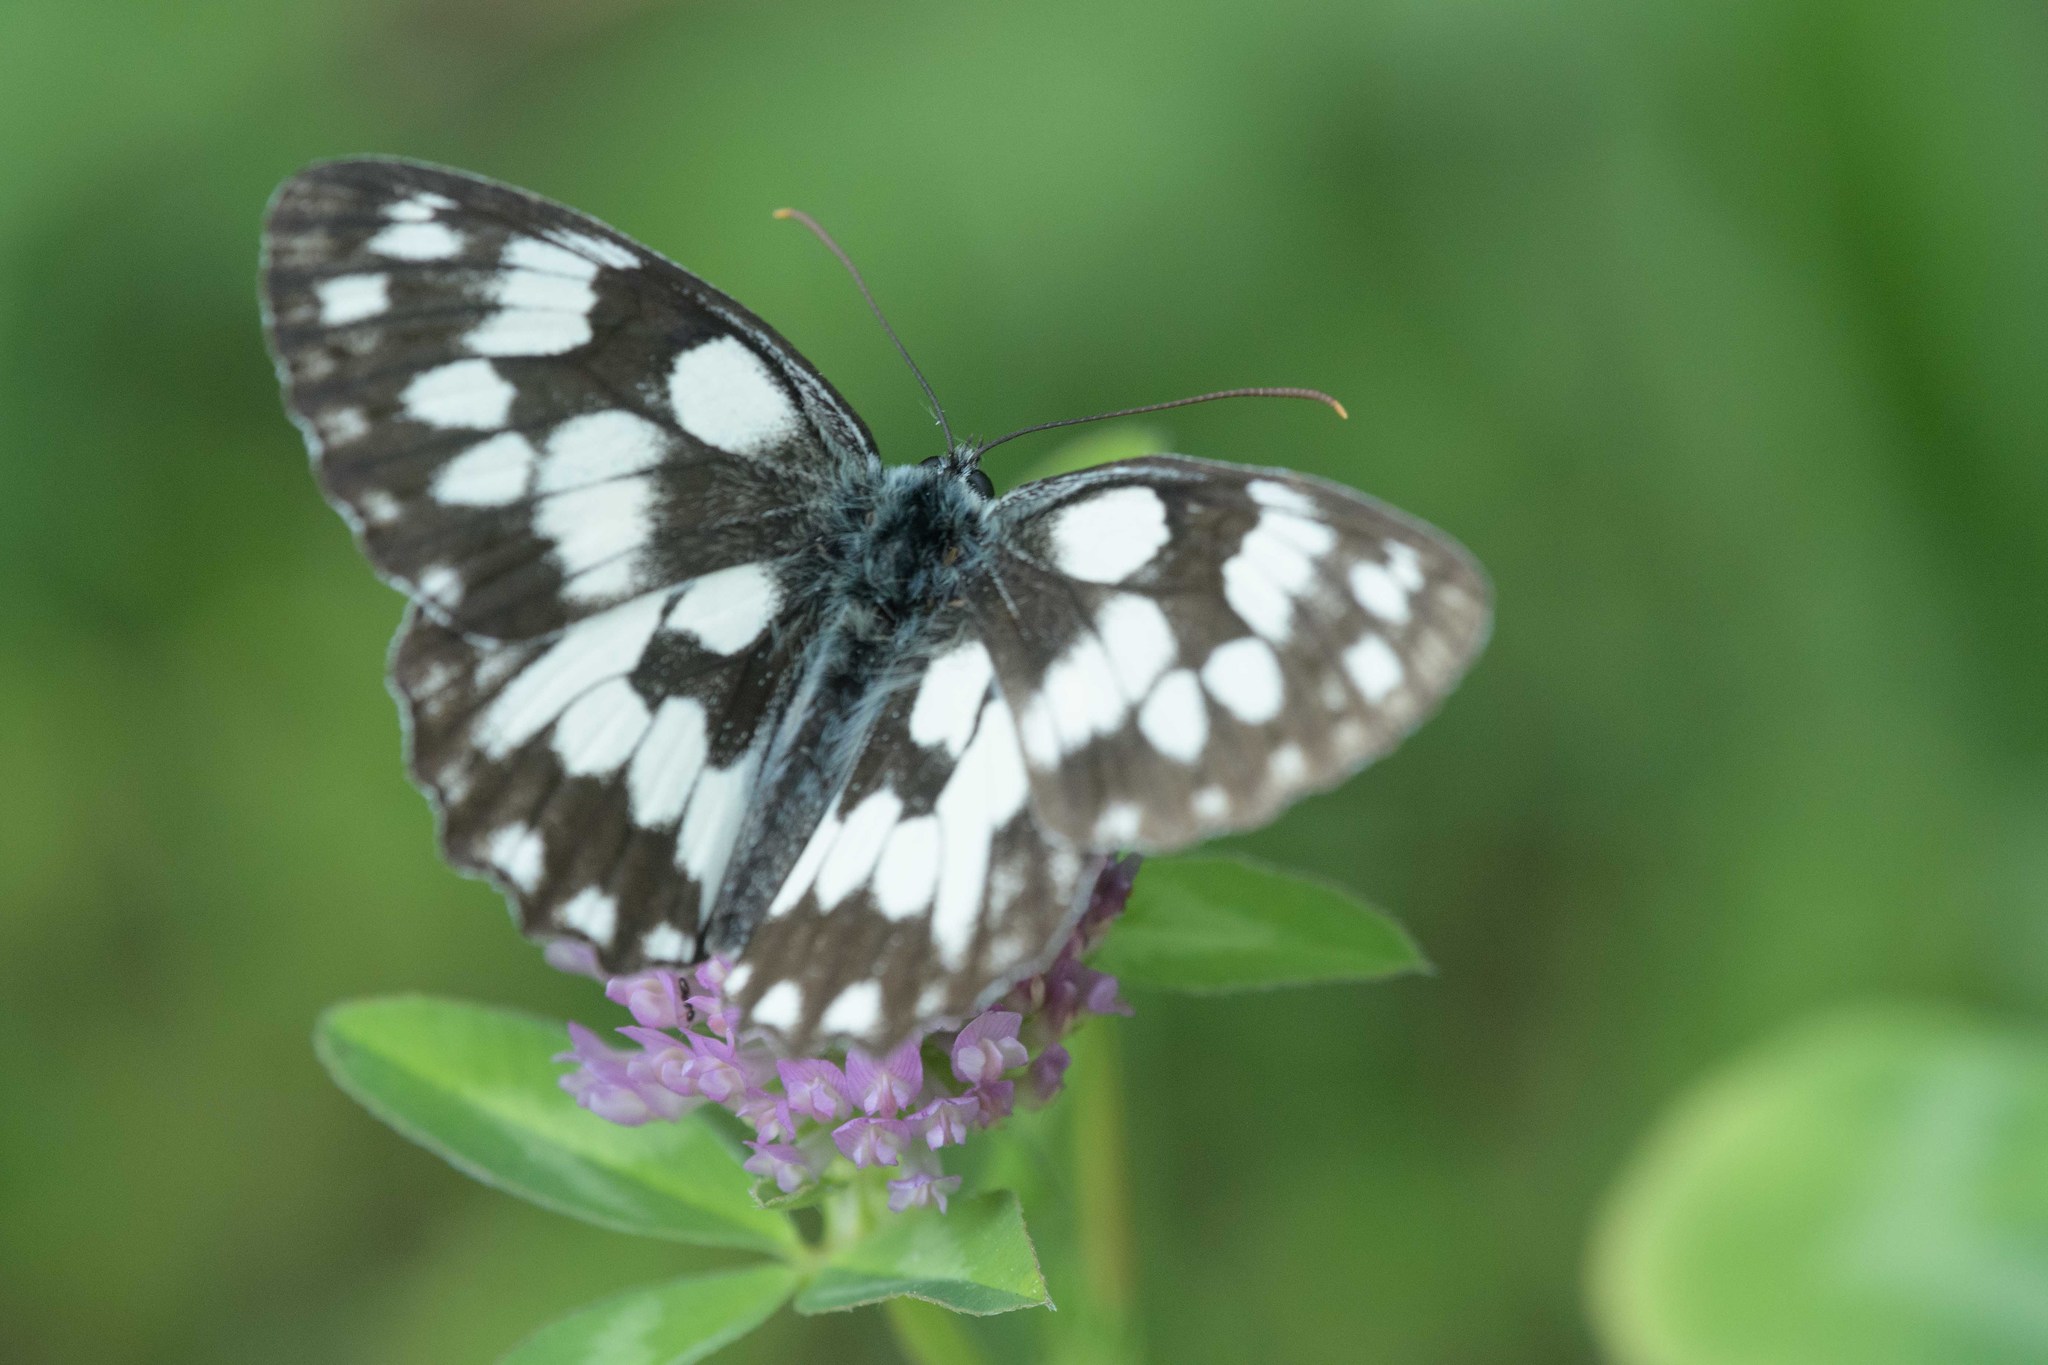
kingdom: Animalia
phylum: Arthropoda
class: Insecta
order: Lepidoptera
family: Nymphalidae
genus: Melanargia
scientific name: Melanargia galathea
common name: Marbled white
